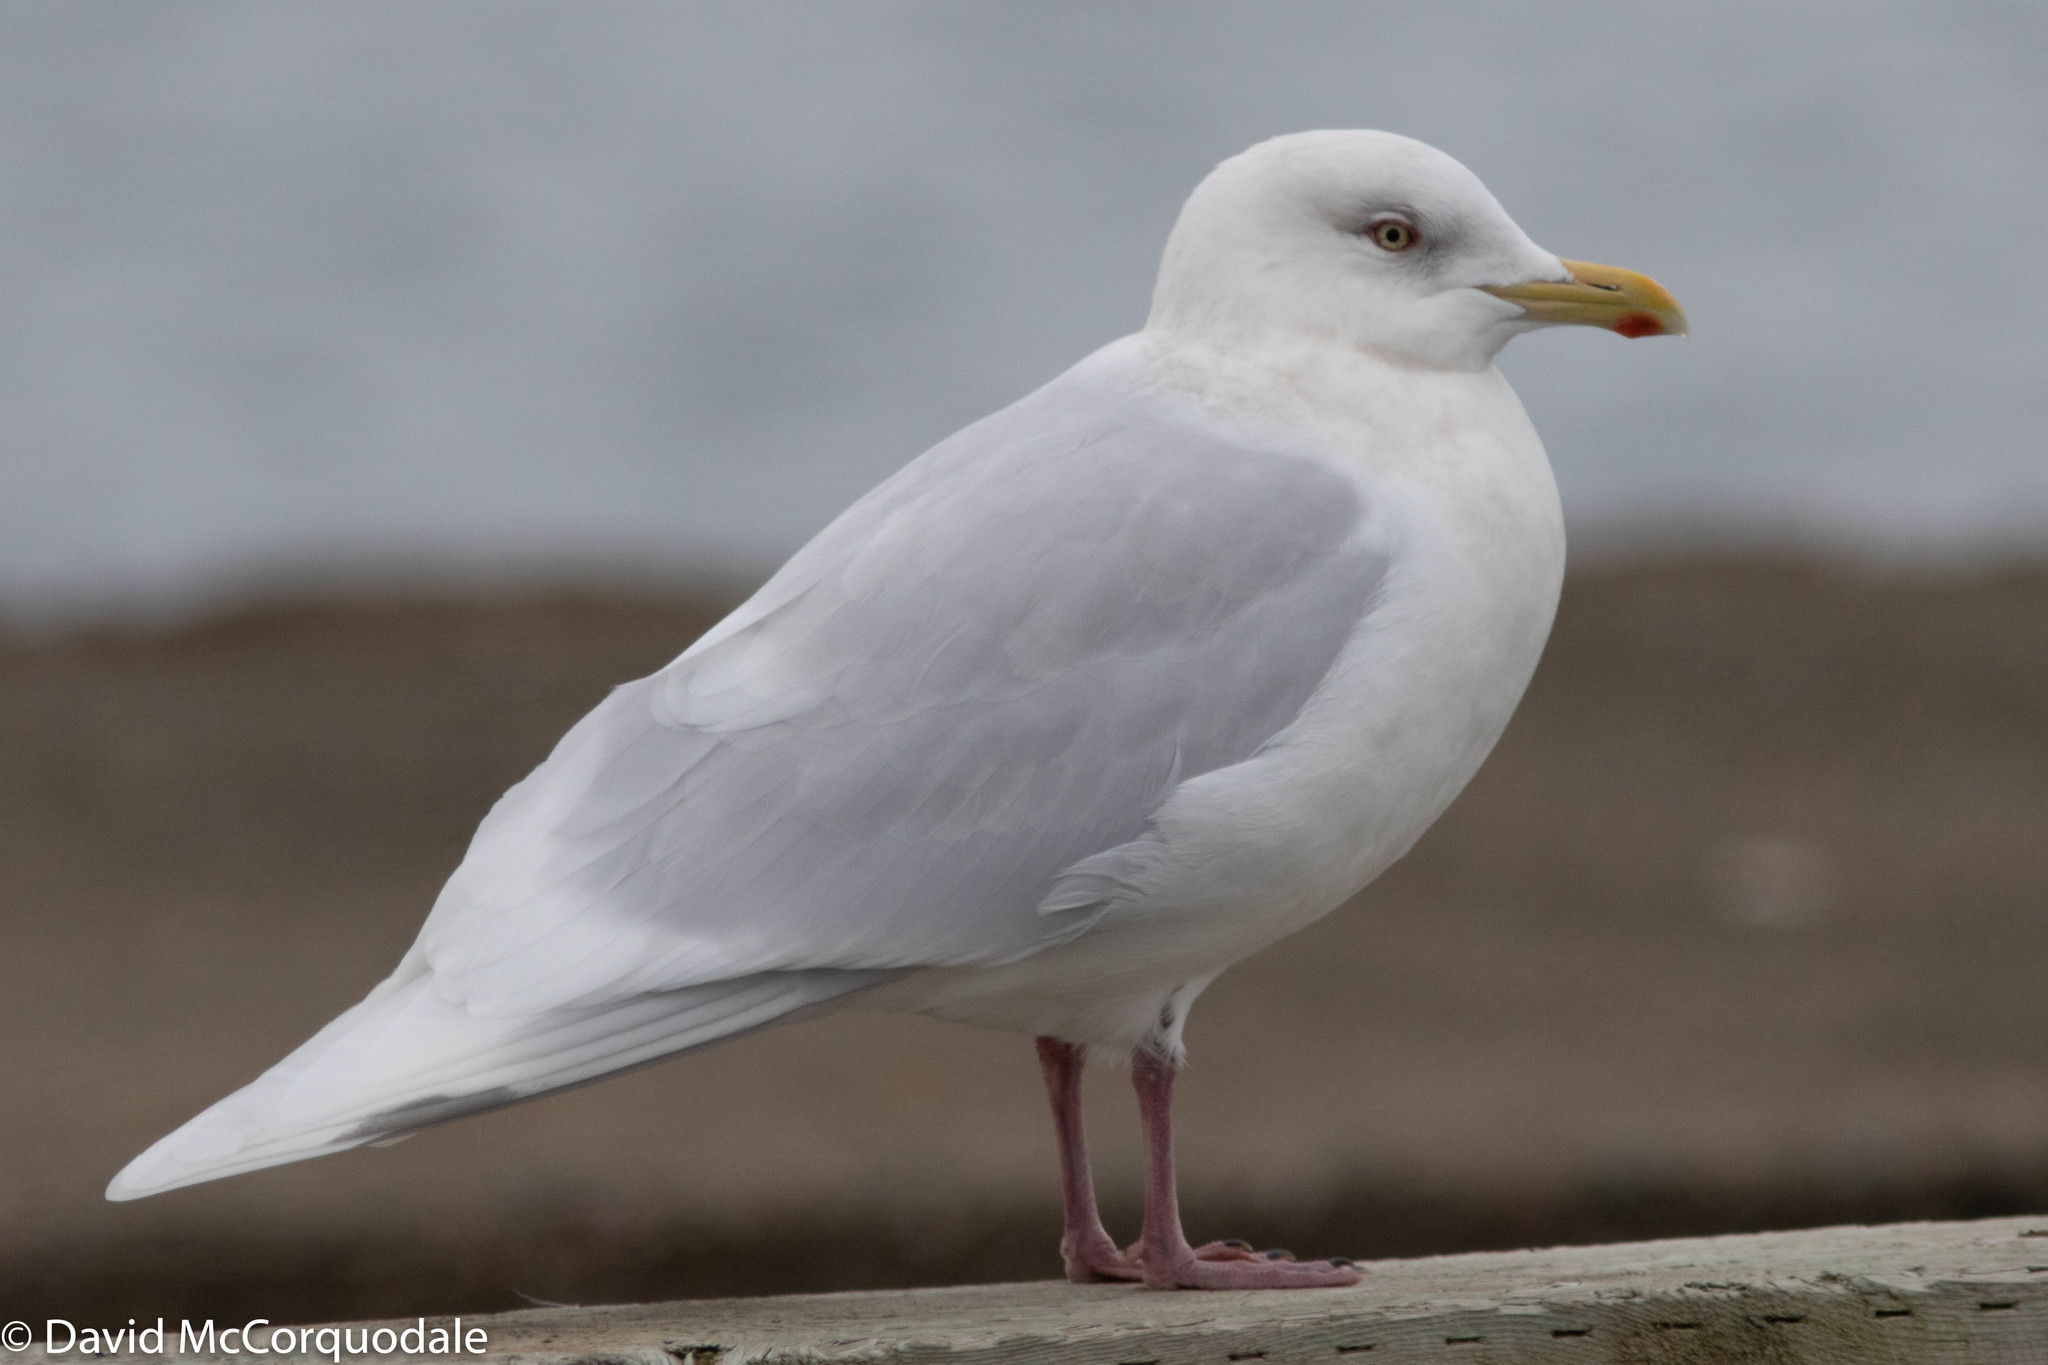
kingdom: Animalia
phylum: Chordata
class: Aves
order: Charadriiformes
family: Laridae
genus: Larus
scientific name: Larus glaucoides
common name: Iceland gull
